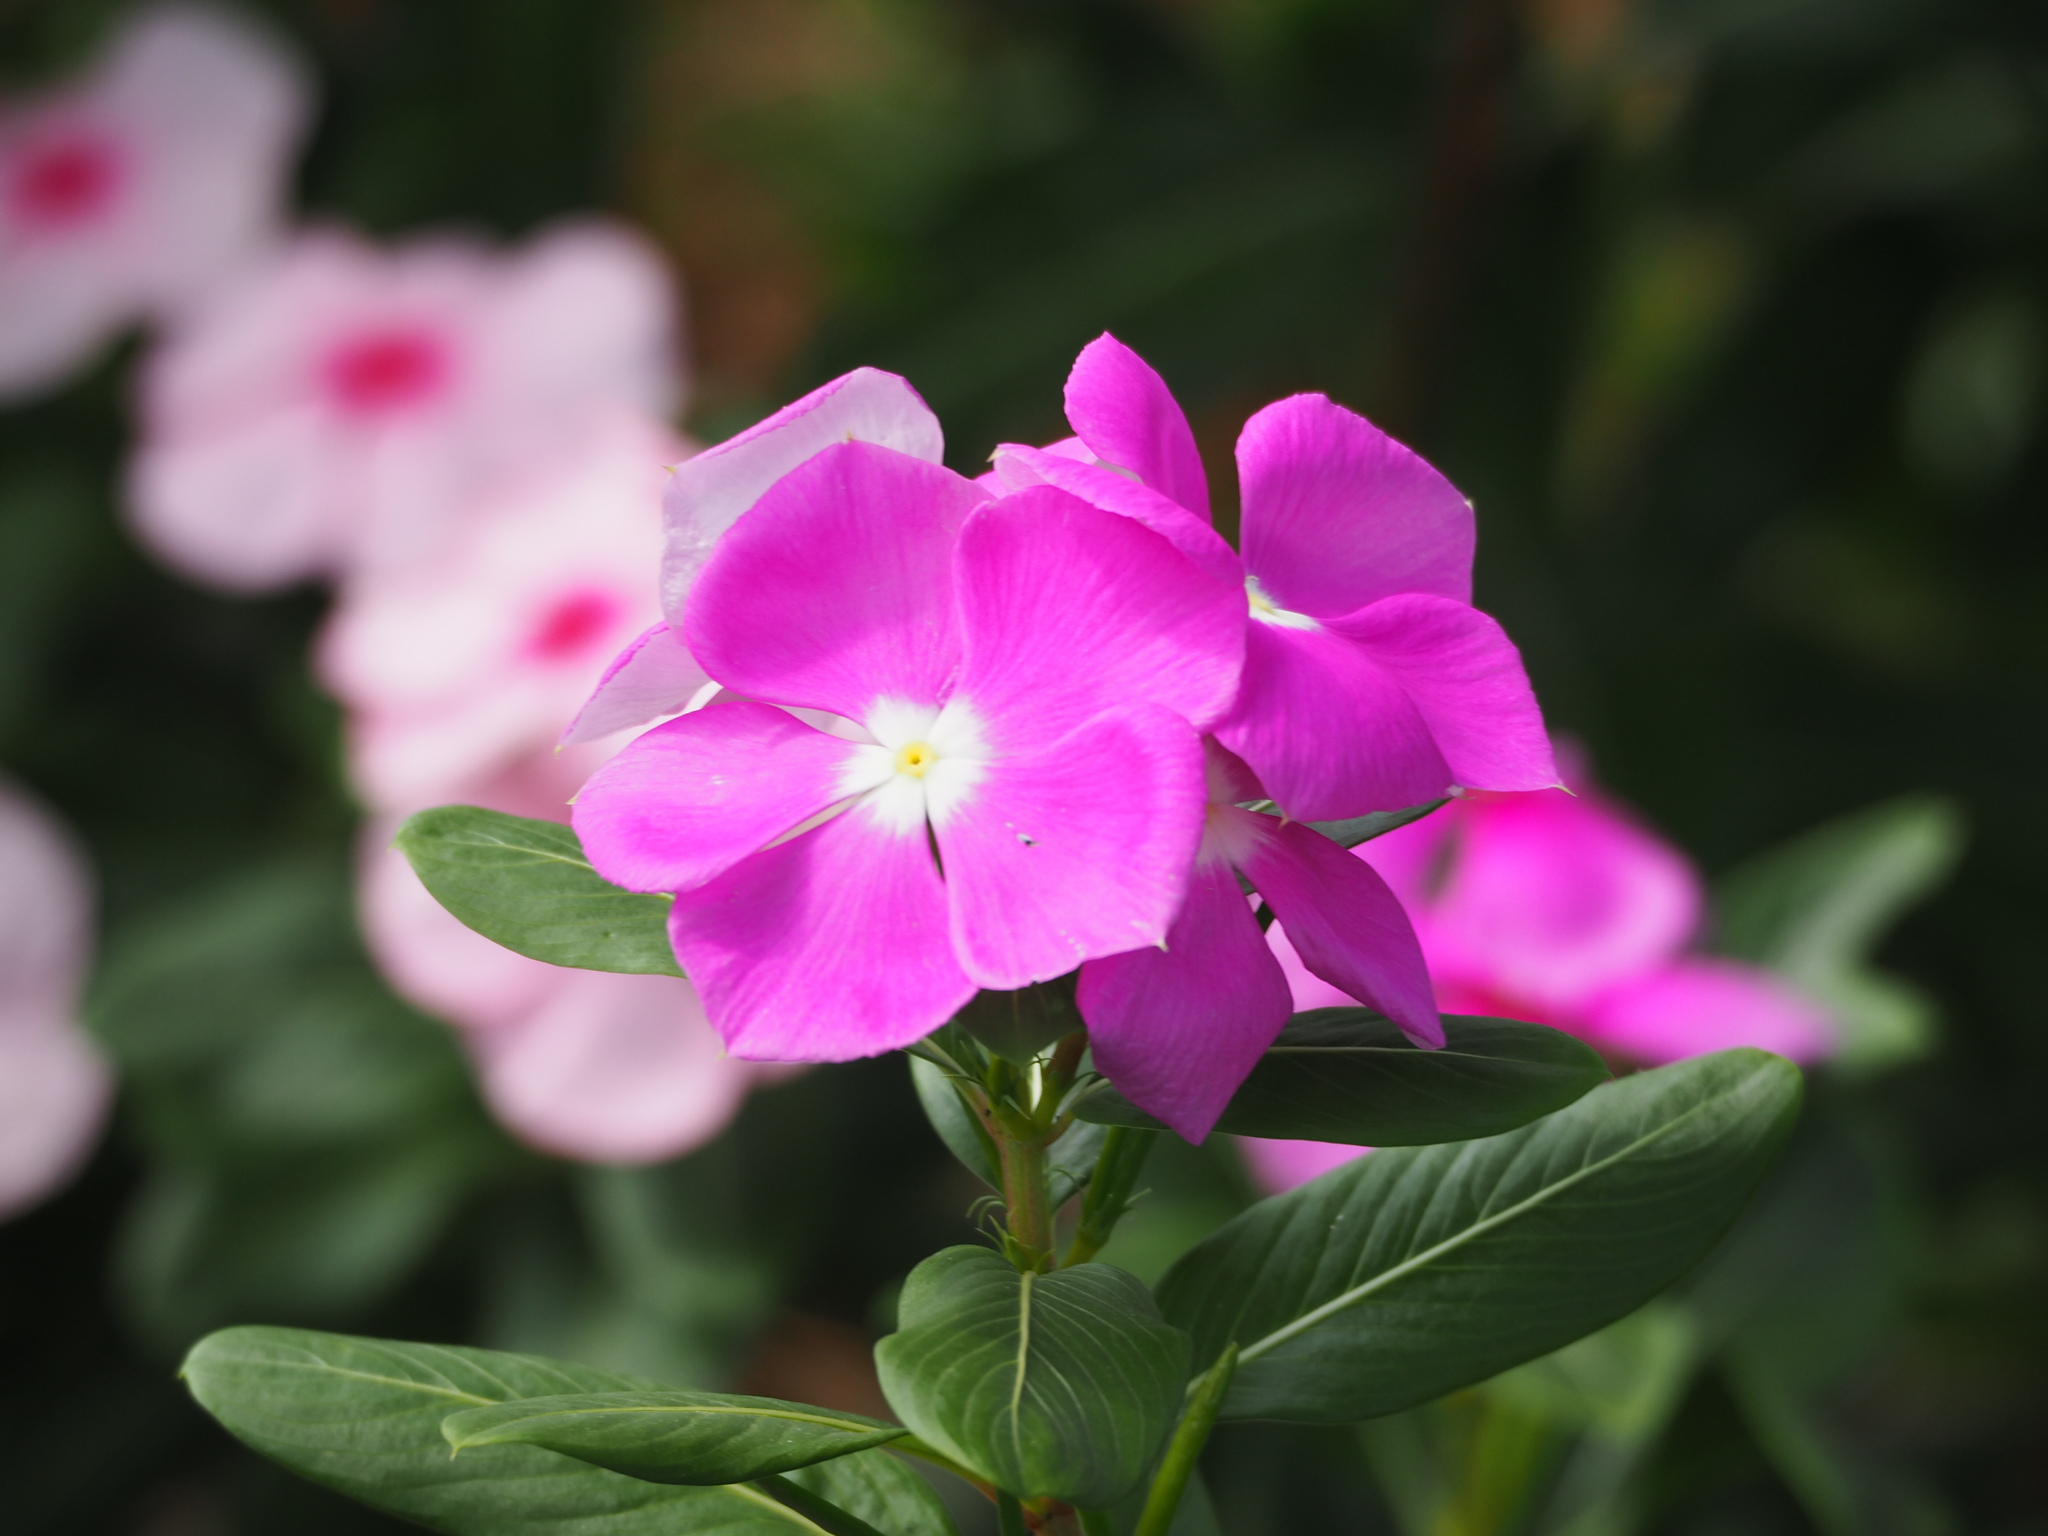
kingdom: Plantae
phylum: Tracheophyta
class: Magnoliopsida
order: Gentianales
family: Apocynaceae
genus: Catharanthus
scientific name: Catharanthus roseus
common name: Madagascar periwinkle
